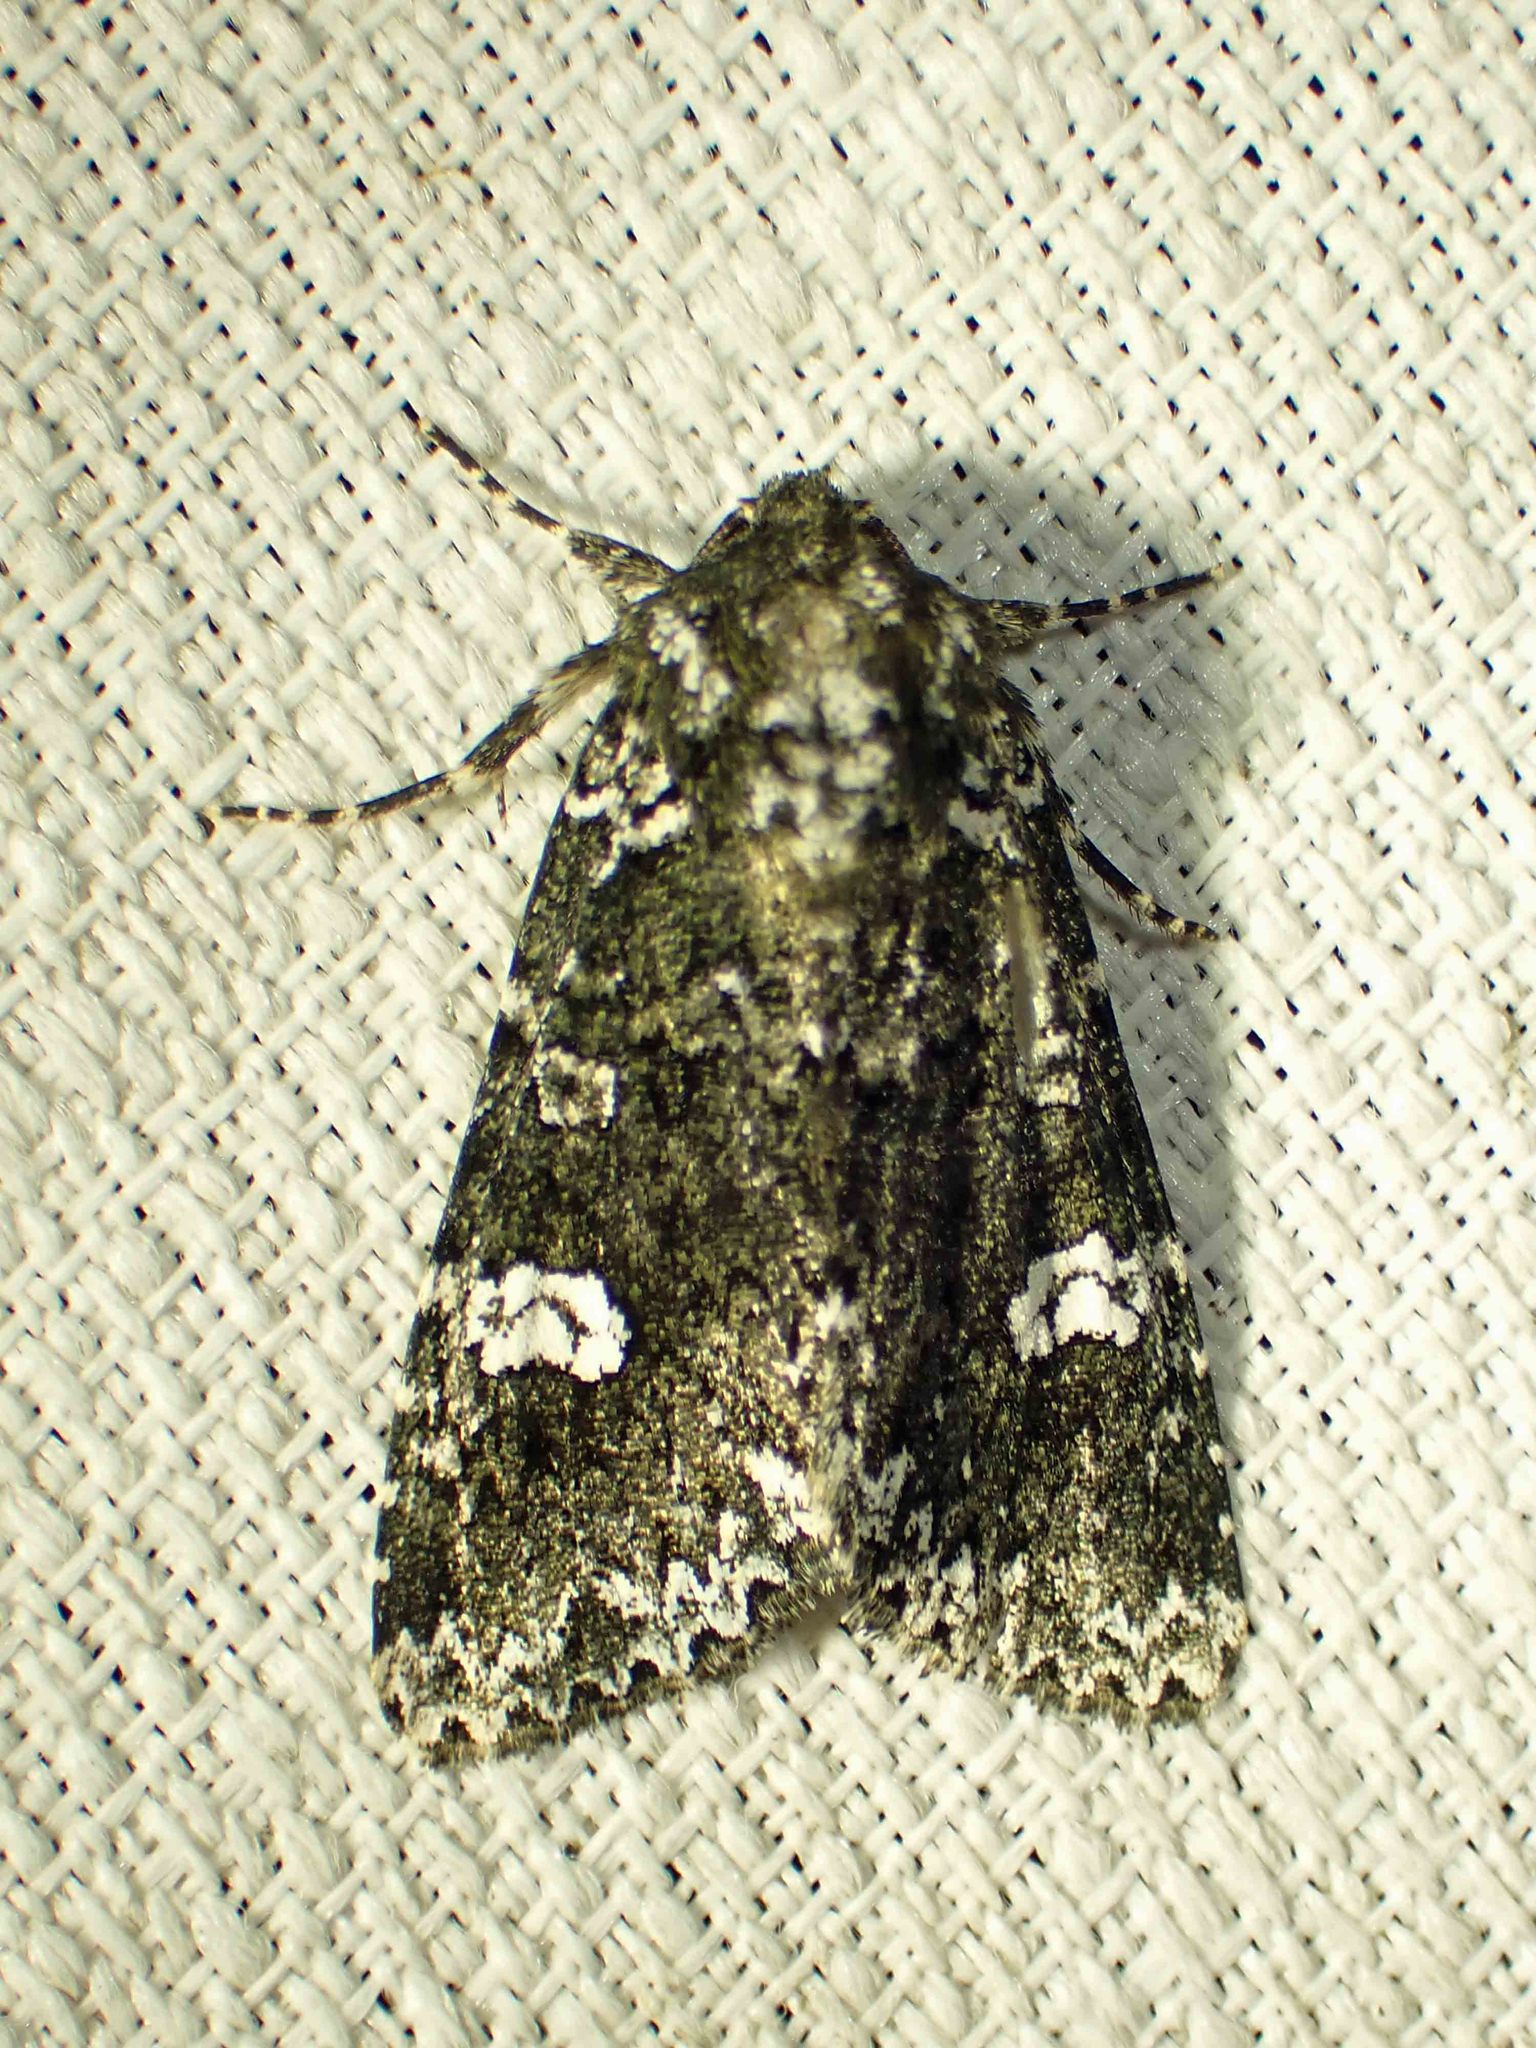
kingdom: Animalia
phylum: Arthropoda
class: Insecta
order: Lepidoptera
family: Noctuidae
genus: Melanchra
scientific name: Melanchra adjuncta
